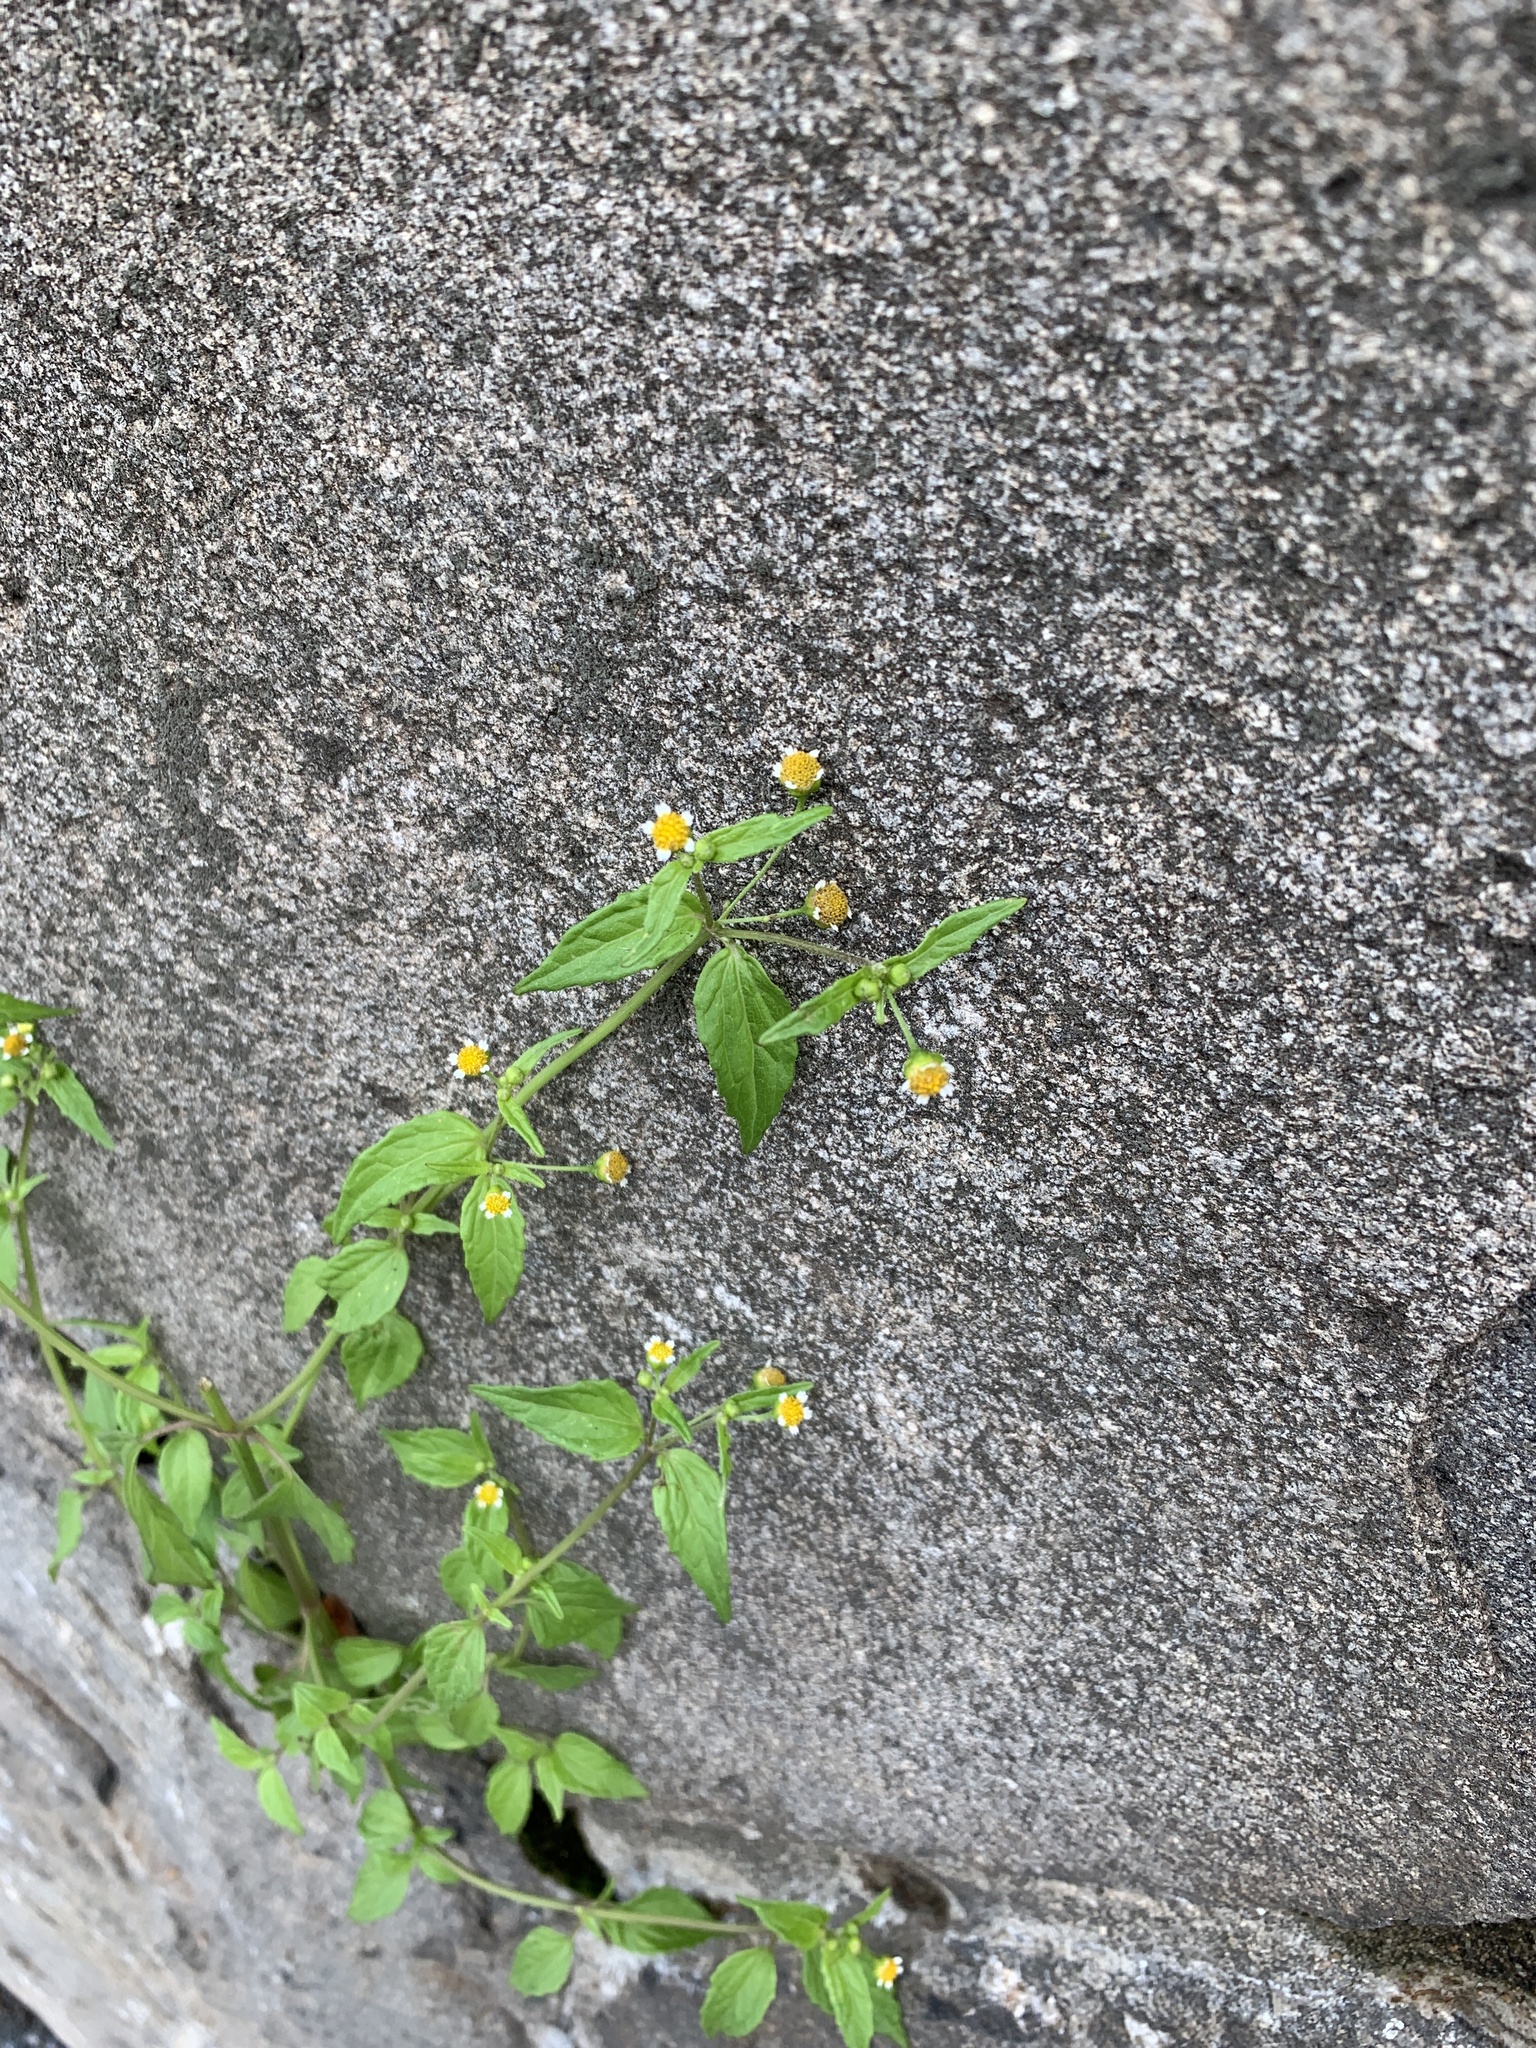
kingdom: Plantae
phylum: Tracheophyta
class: Magnoliopsida
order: Asterales
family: Asteraceae
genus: Galinsoga
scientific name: Galinsoga parviflora
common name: Gallant soldier
